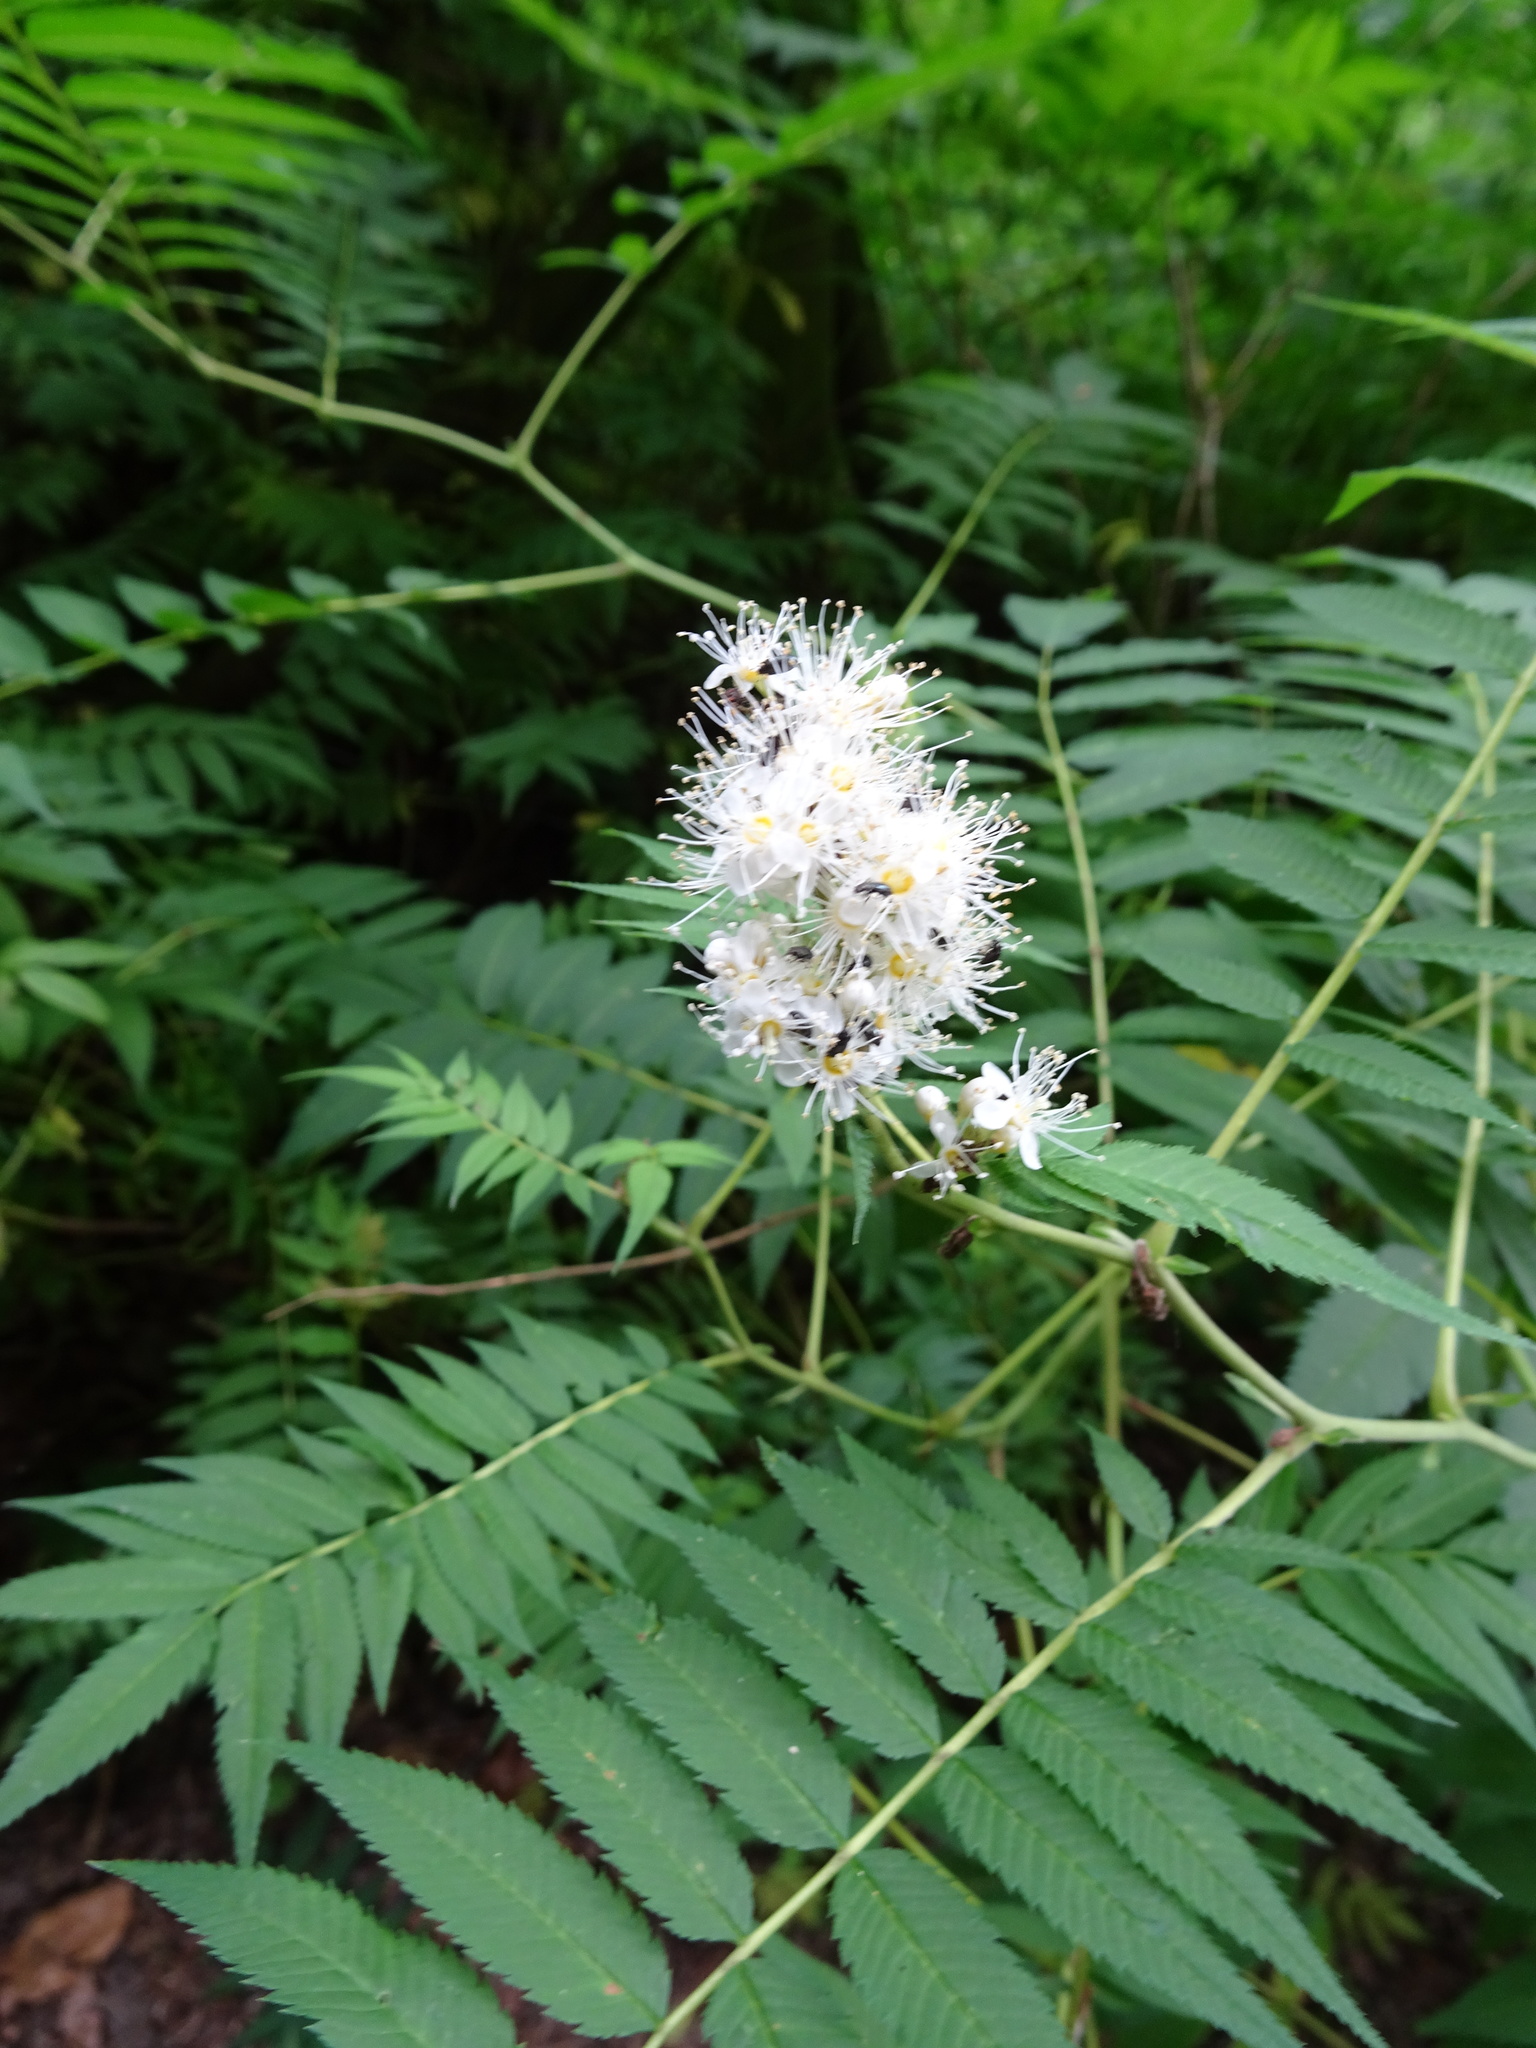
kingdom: Plantae
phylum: Tracheophyta
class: Magnoliopsida
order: Rosales
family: Rosaceae
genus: Sorbaria
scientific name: Sorbaria sorbifolia
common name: False spiraea
